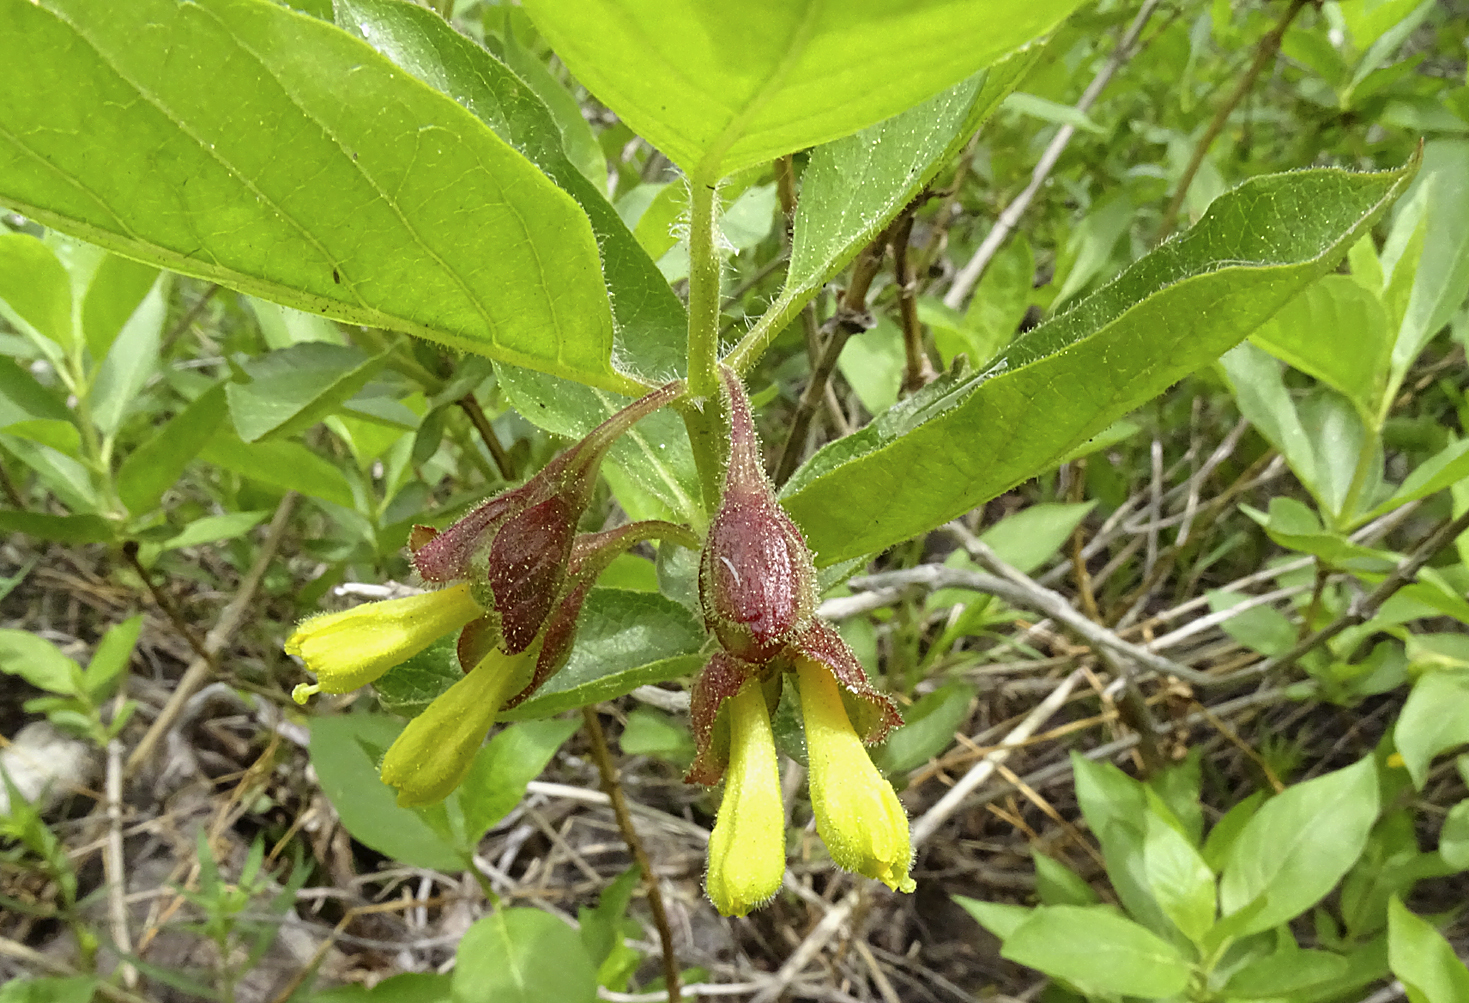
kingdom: Plantae
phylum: Tracheophyta
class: Magnoliopsida
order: Dipsacales
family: Caprifoliaceae
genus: Lonicera
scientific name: Lonicera involucrata
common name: Californian honeysuckle
